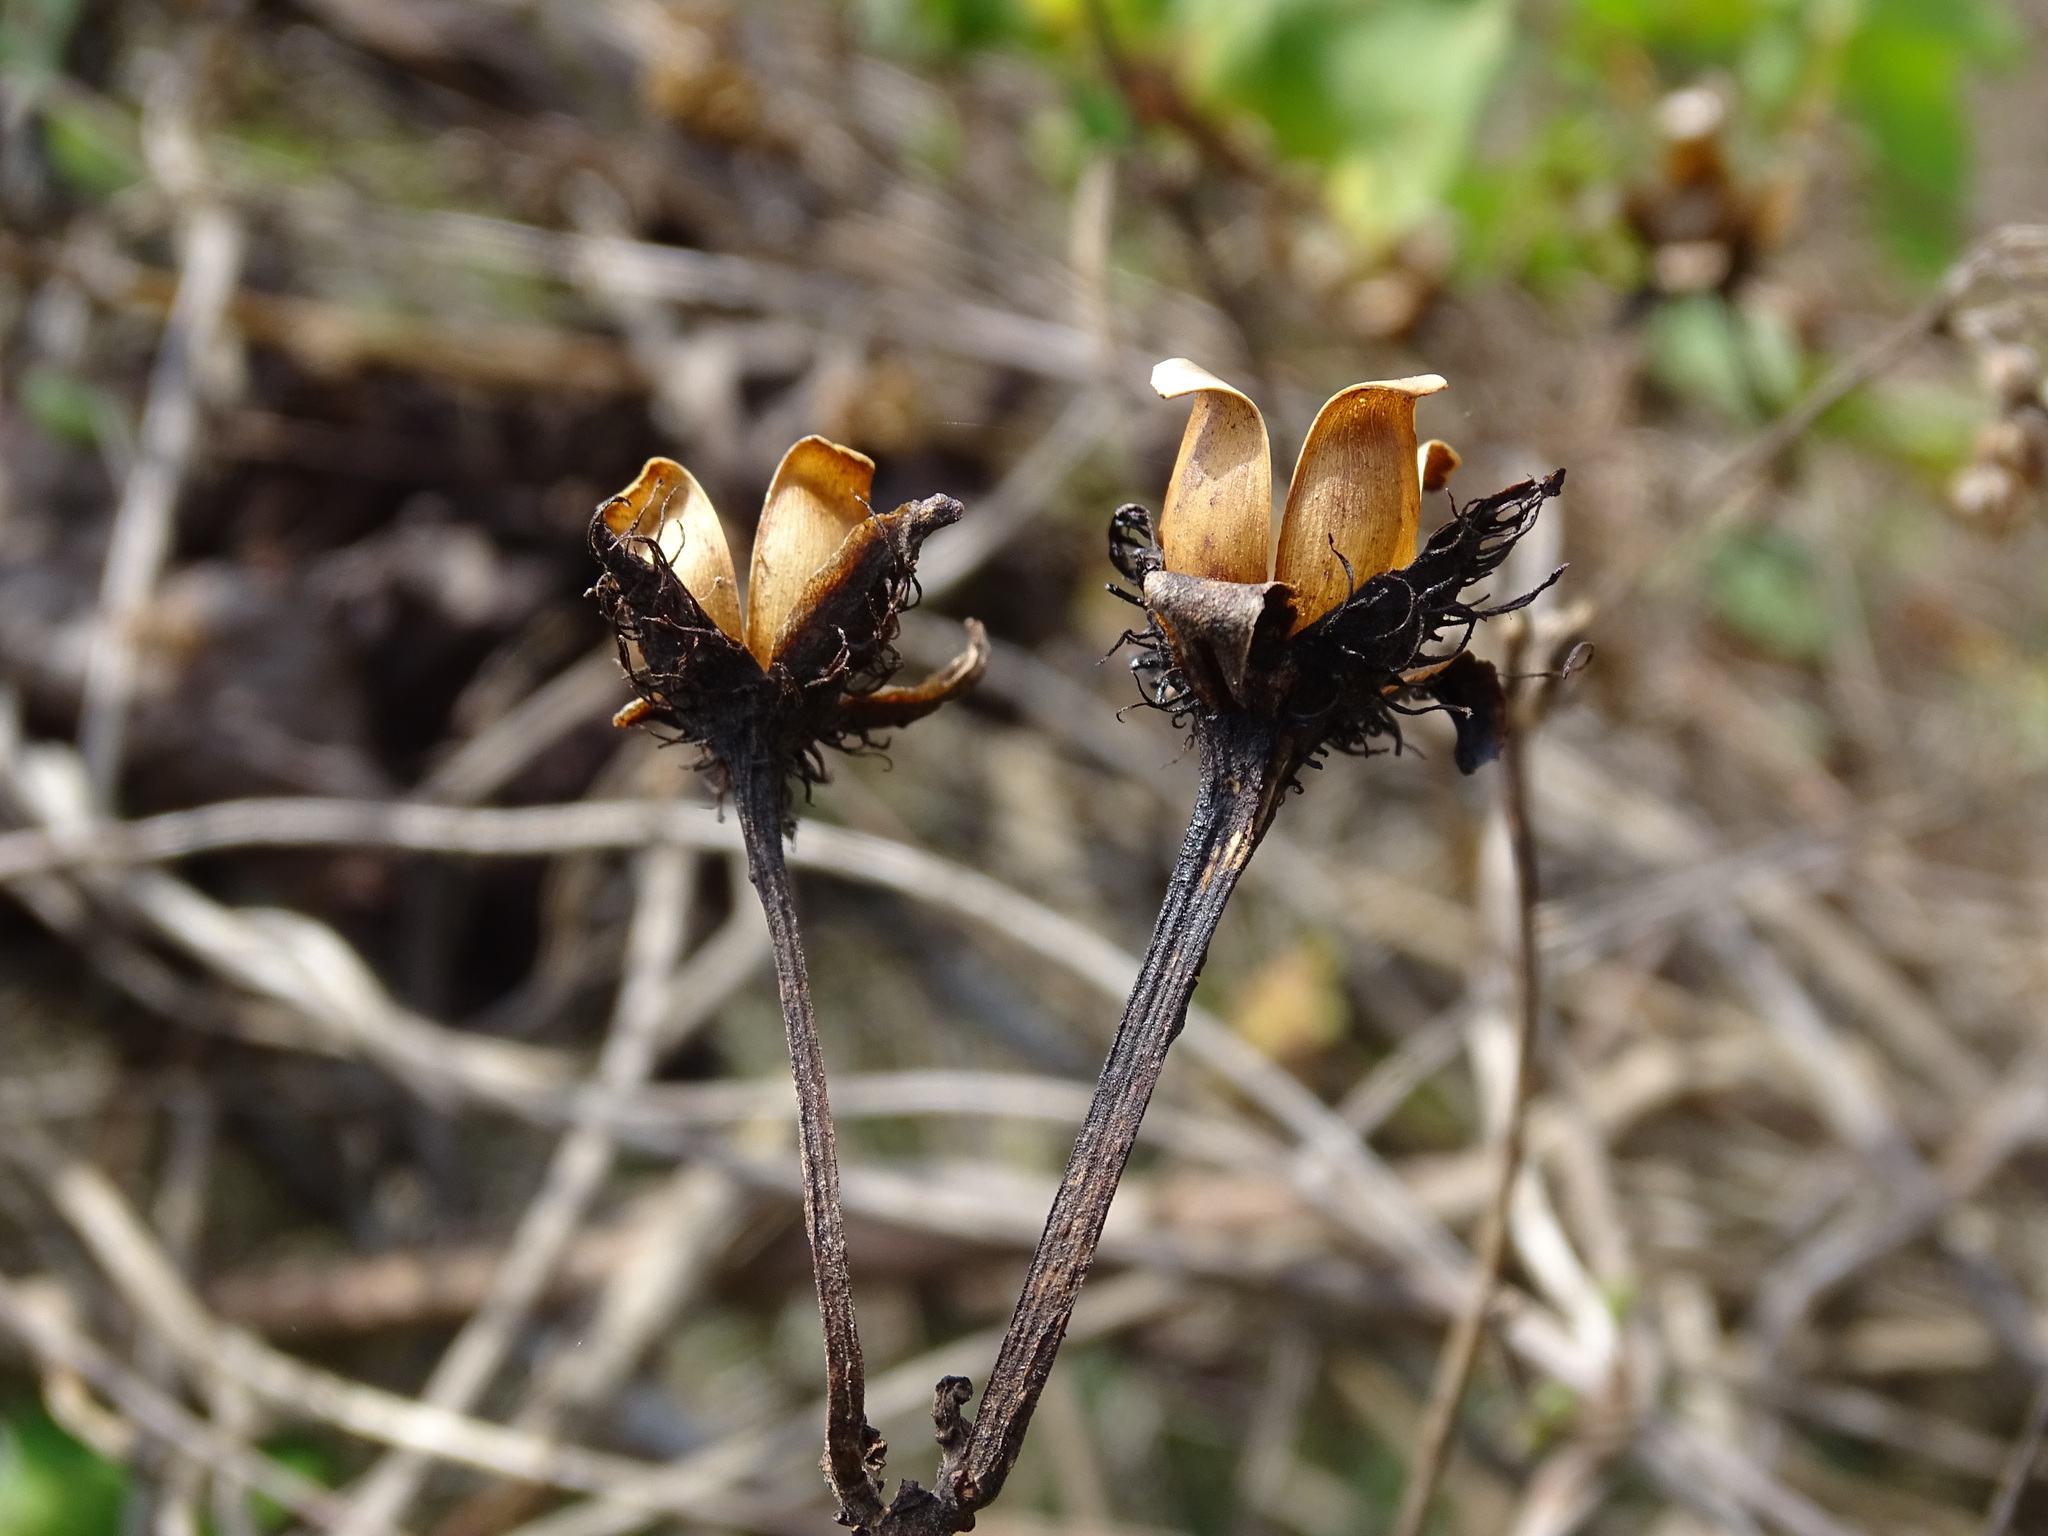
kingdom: Plantae
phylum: Tracheophyta
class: Magnoliopsida
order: Solanales
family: Convolvulaceae
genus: Ipomoea
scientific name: Ipomoea crinicalyx
